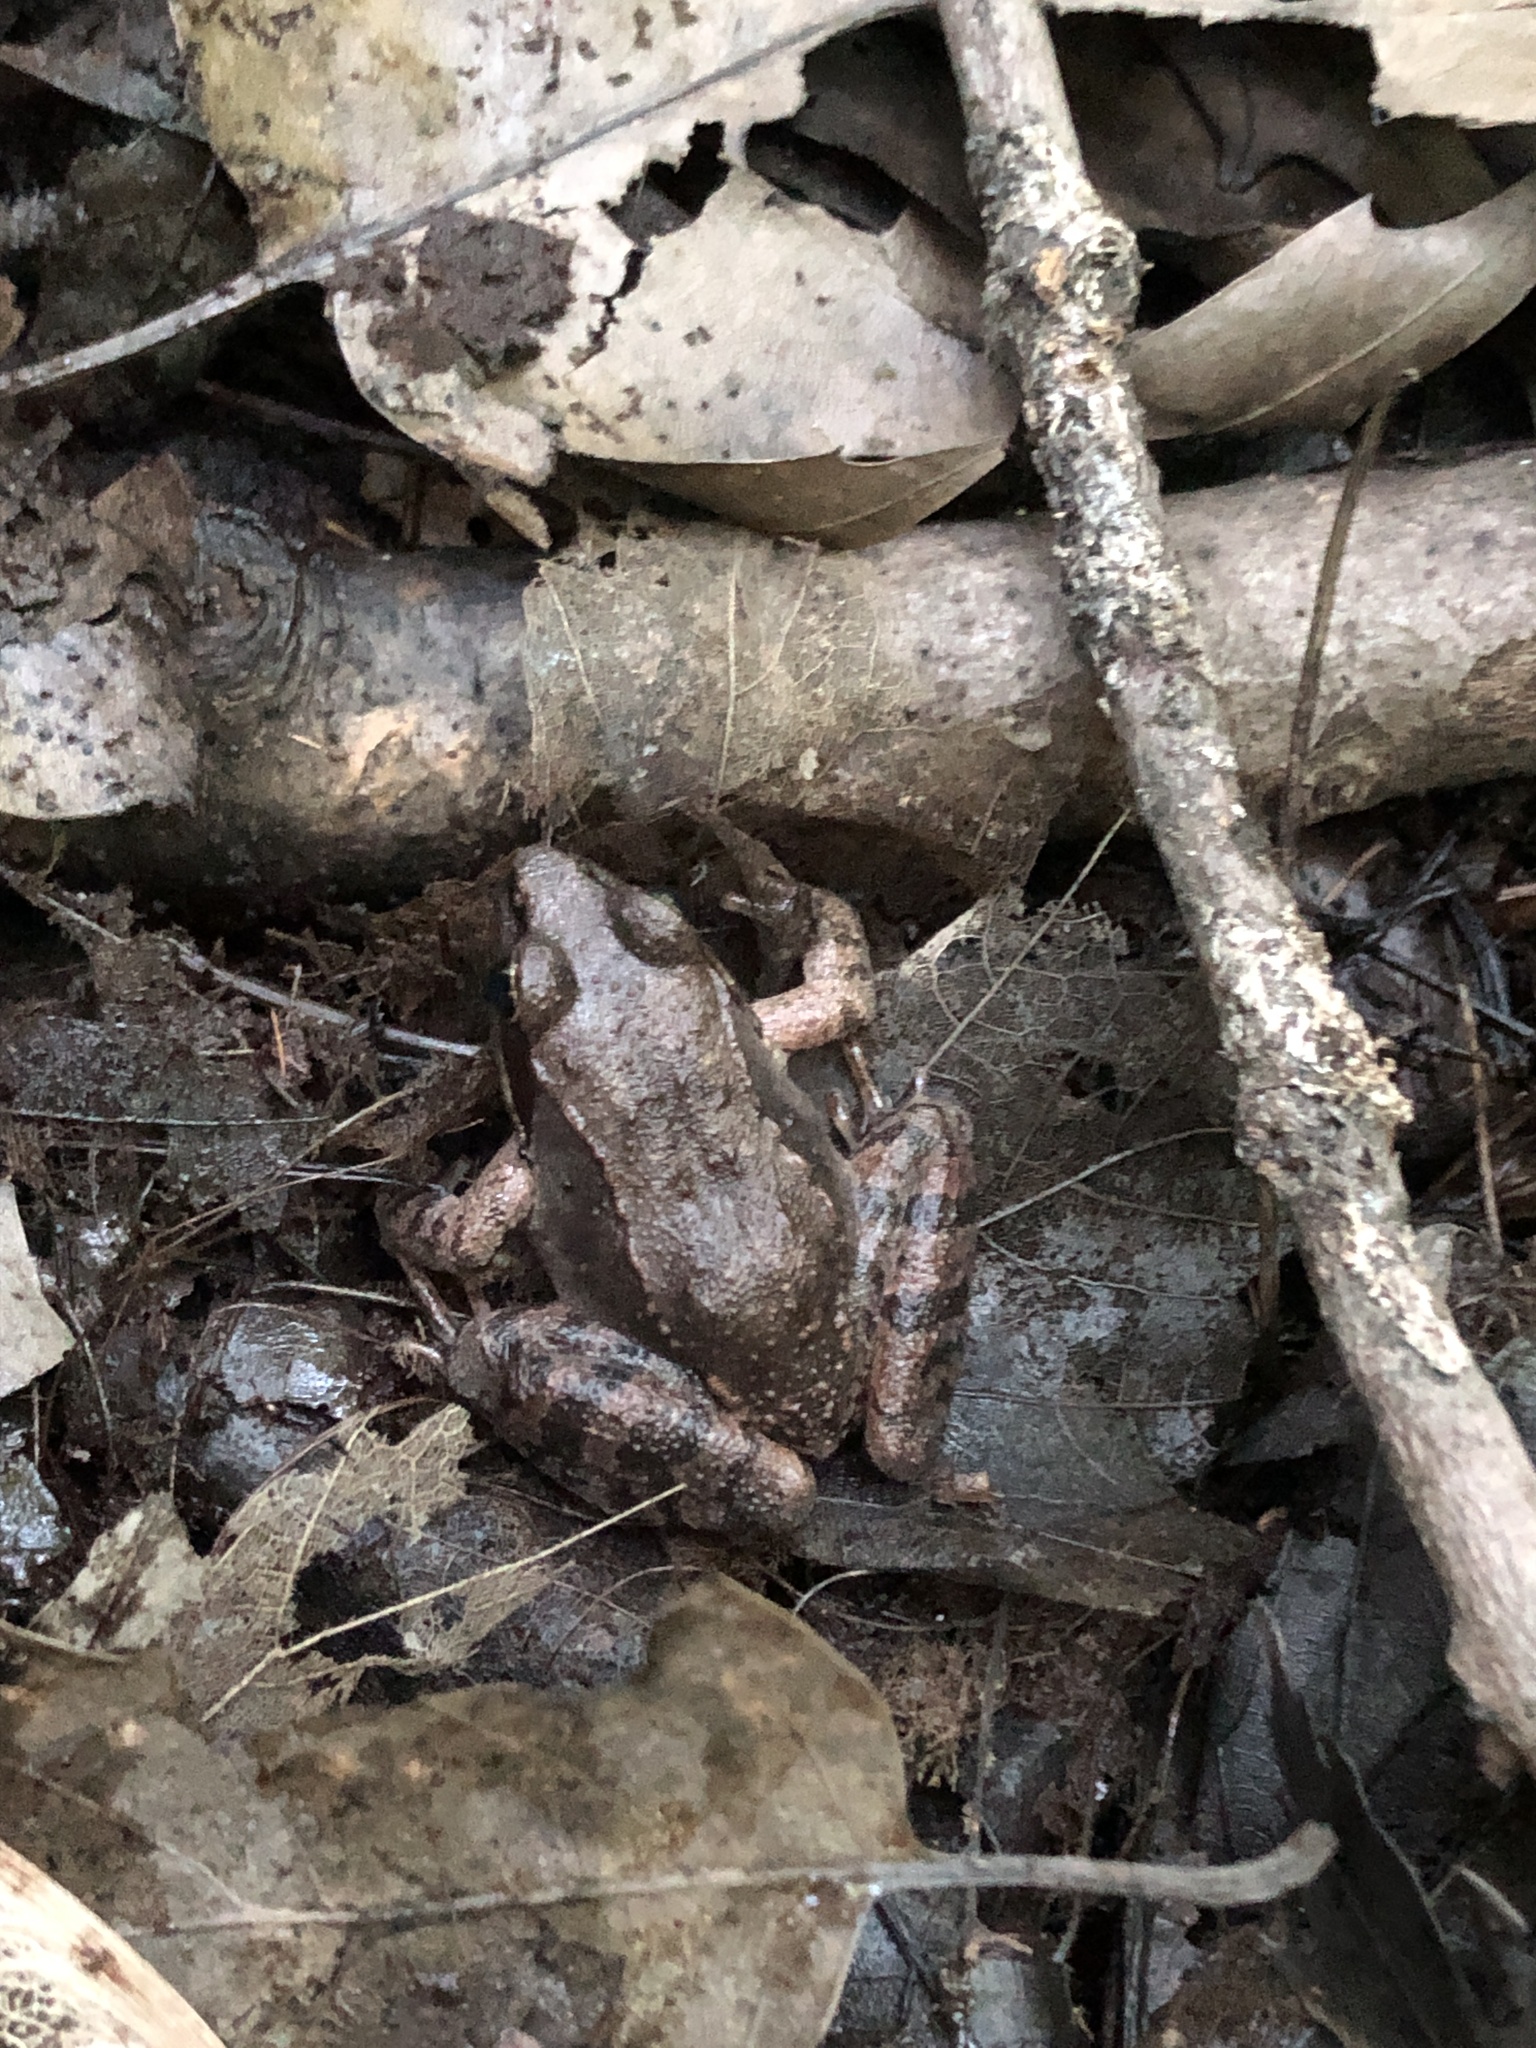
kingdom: Animalia
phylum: Chordata
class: Amphibia
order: Anura
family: Ranidae
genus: Lithobates
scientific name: Lithobates sylvaticus
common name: Wood frog
